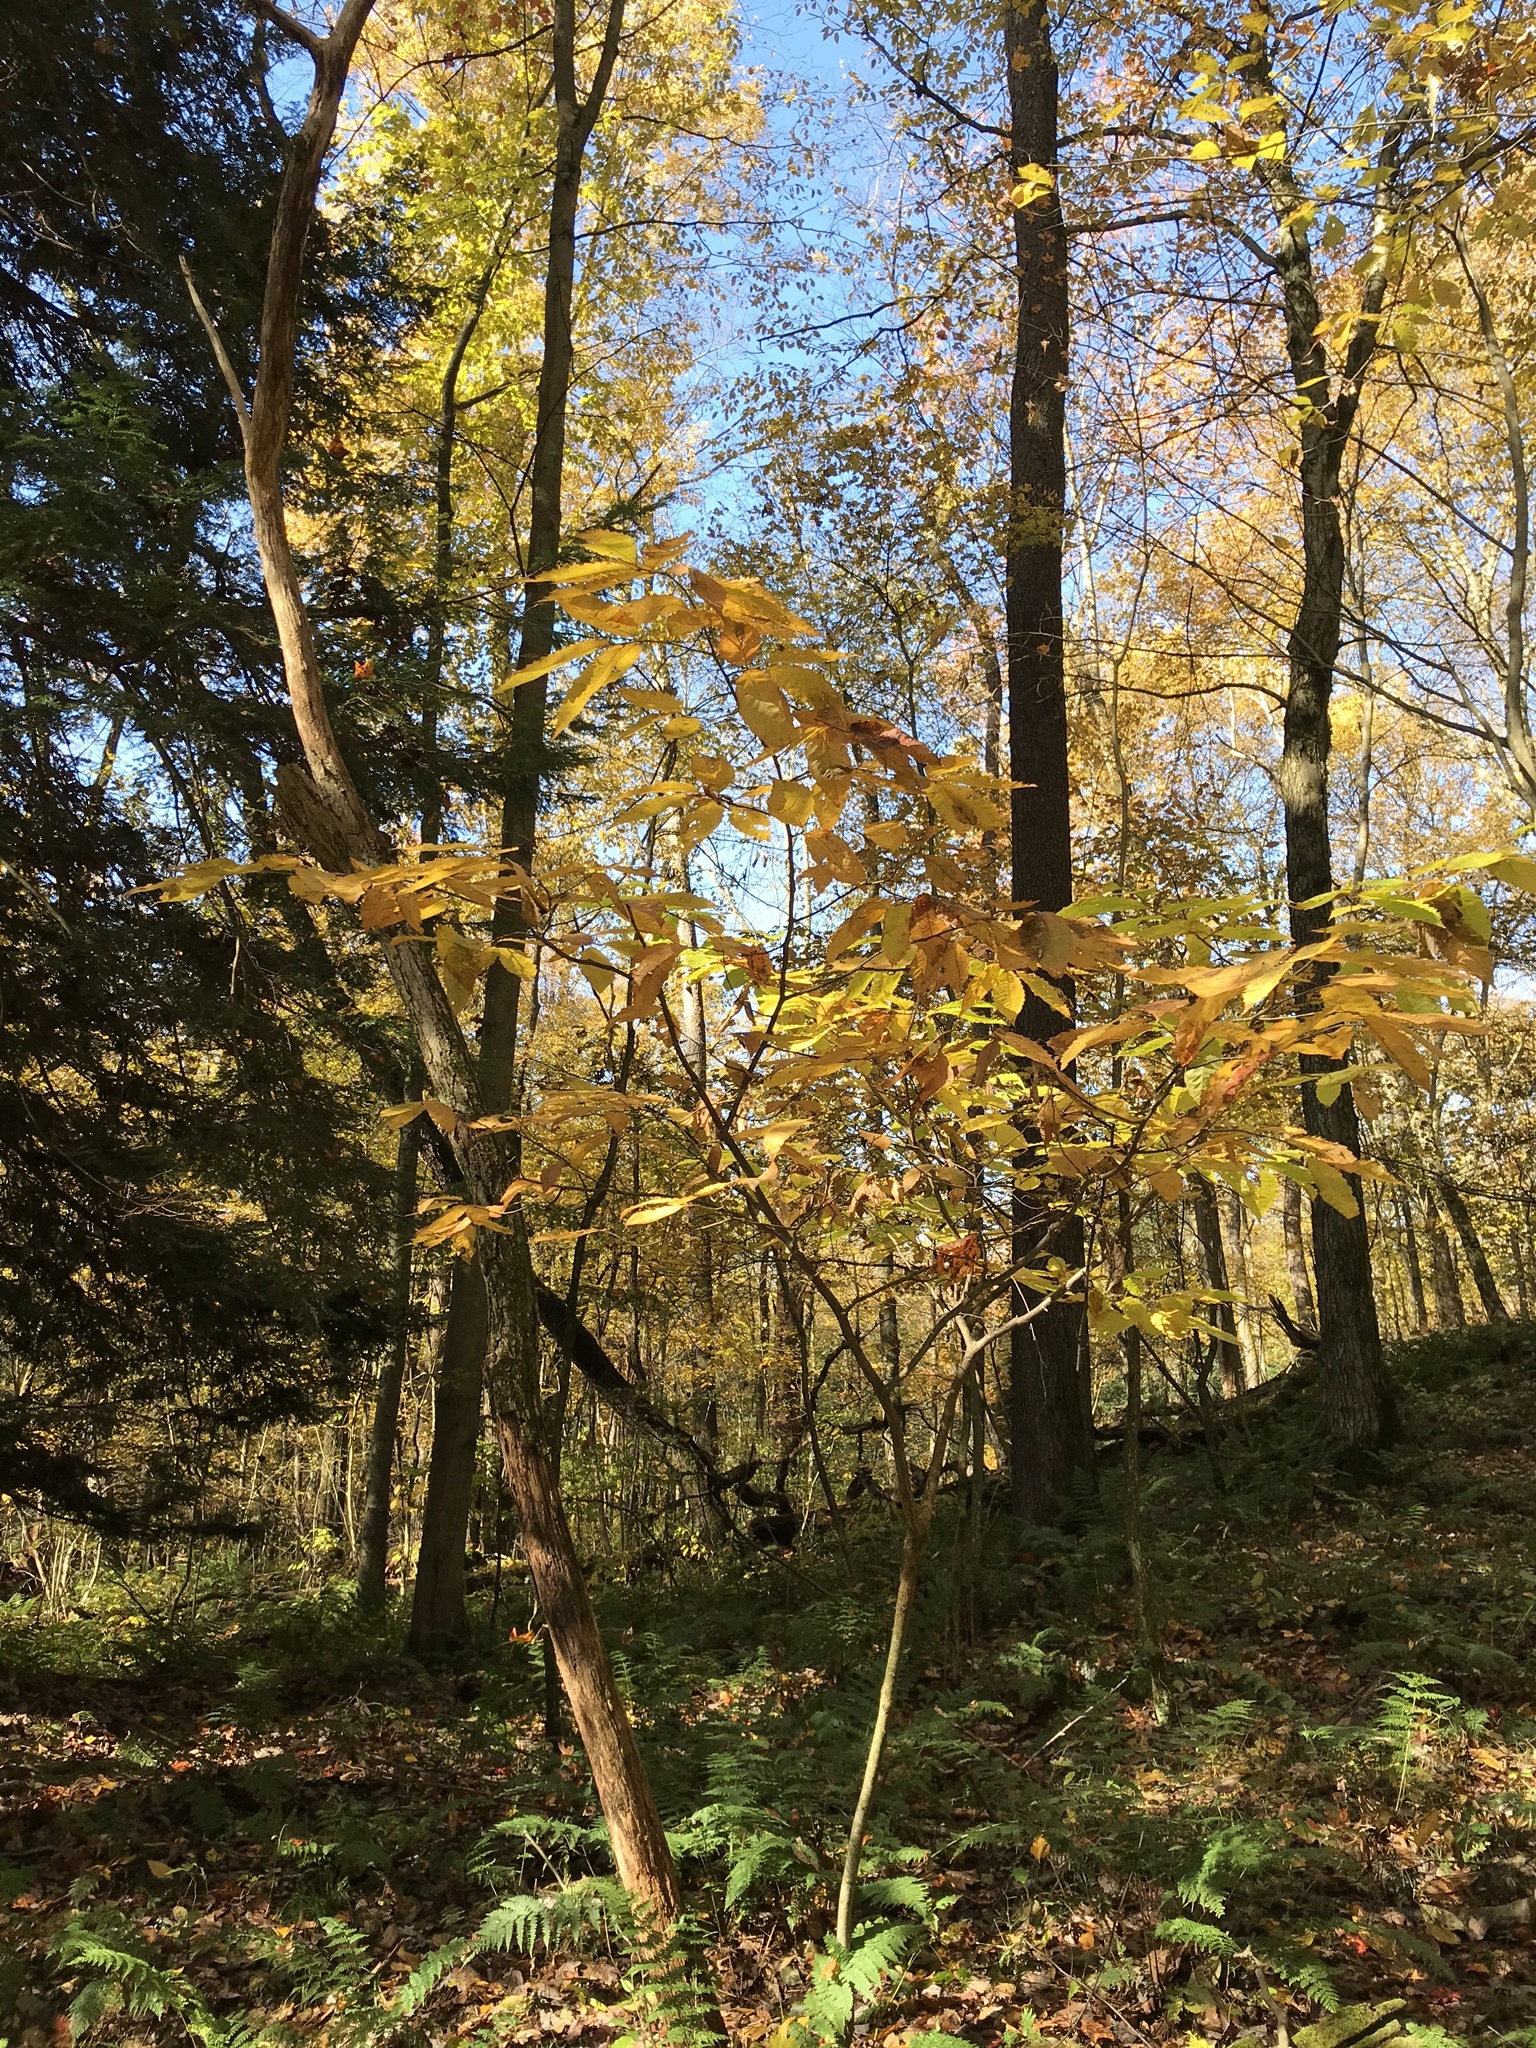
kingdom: Plantae
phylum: Tracheophyta
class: Magnoliopsida
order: Fagales
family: Fagaceae
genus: Castanea
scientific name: Castanea dentata
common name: American chestnut
